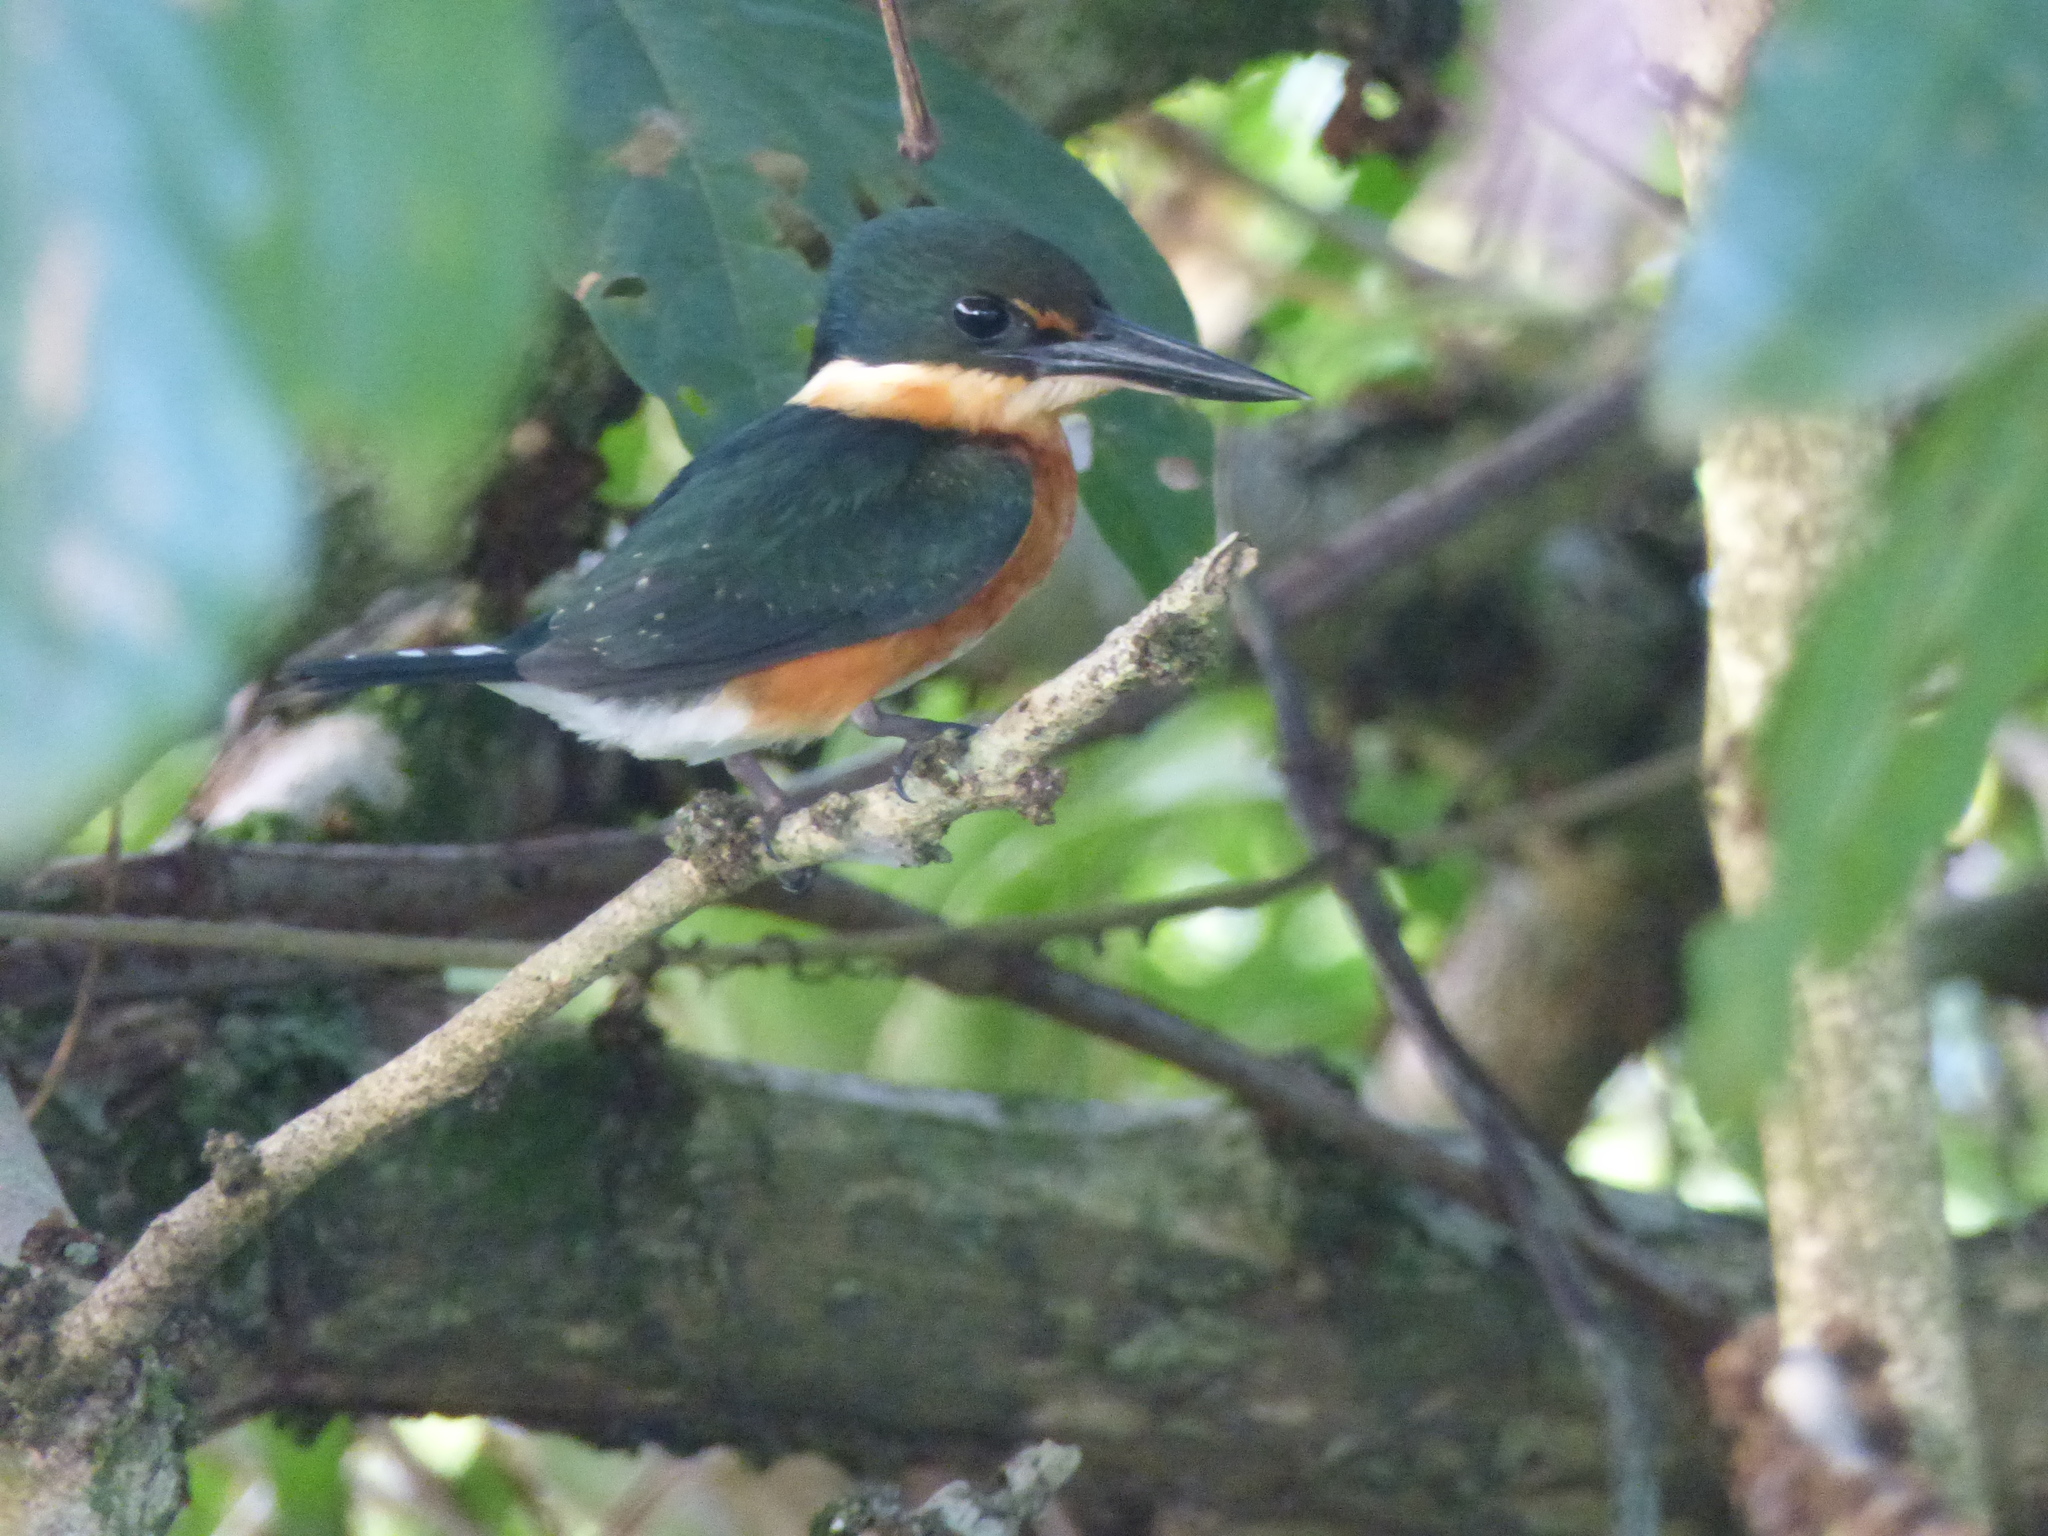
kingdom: Animalia
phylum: Chordata
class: Aves
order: Coraciiformes
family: Alcedinidae
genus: Chloroceryle
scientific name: Chloroceryle aenea
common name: American pygmy kingfisher
